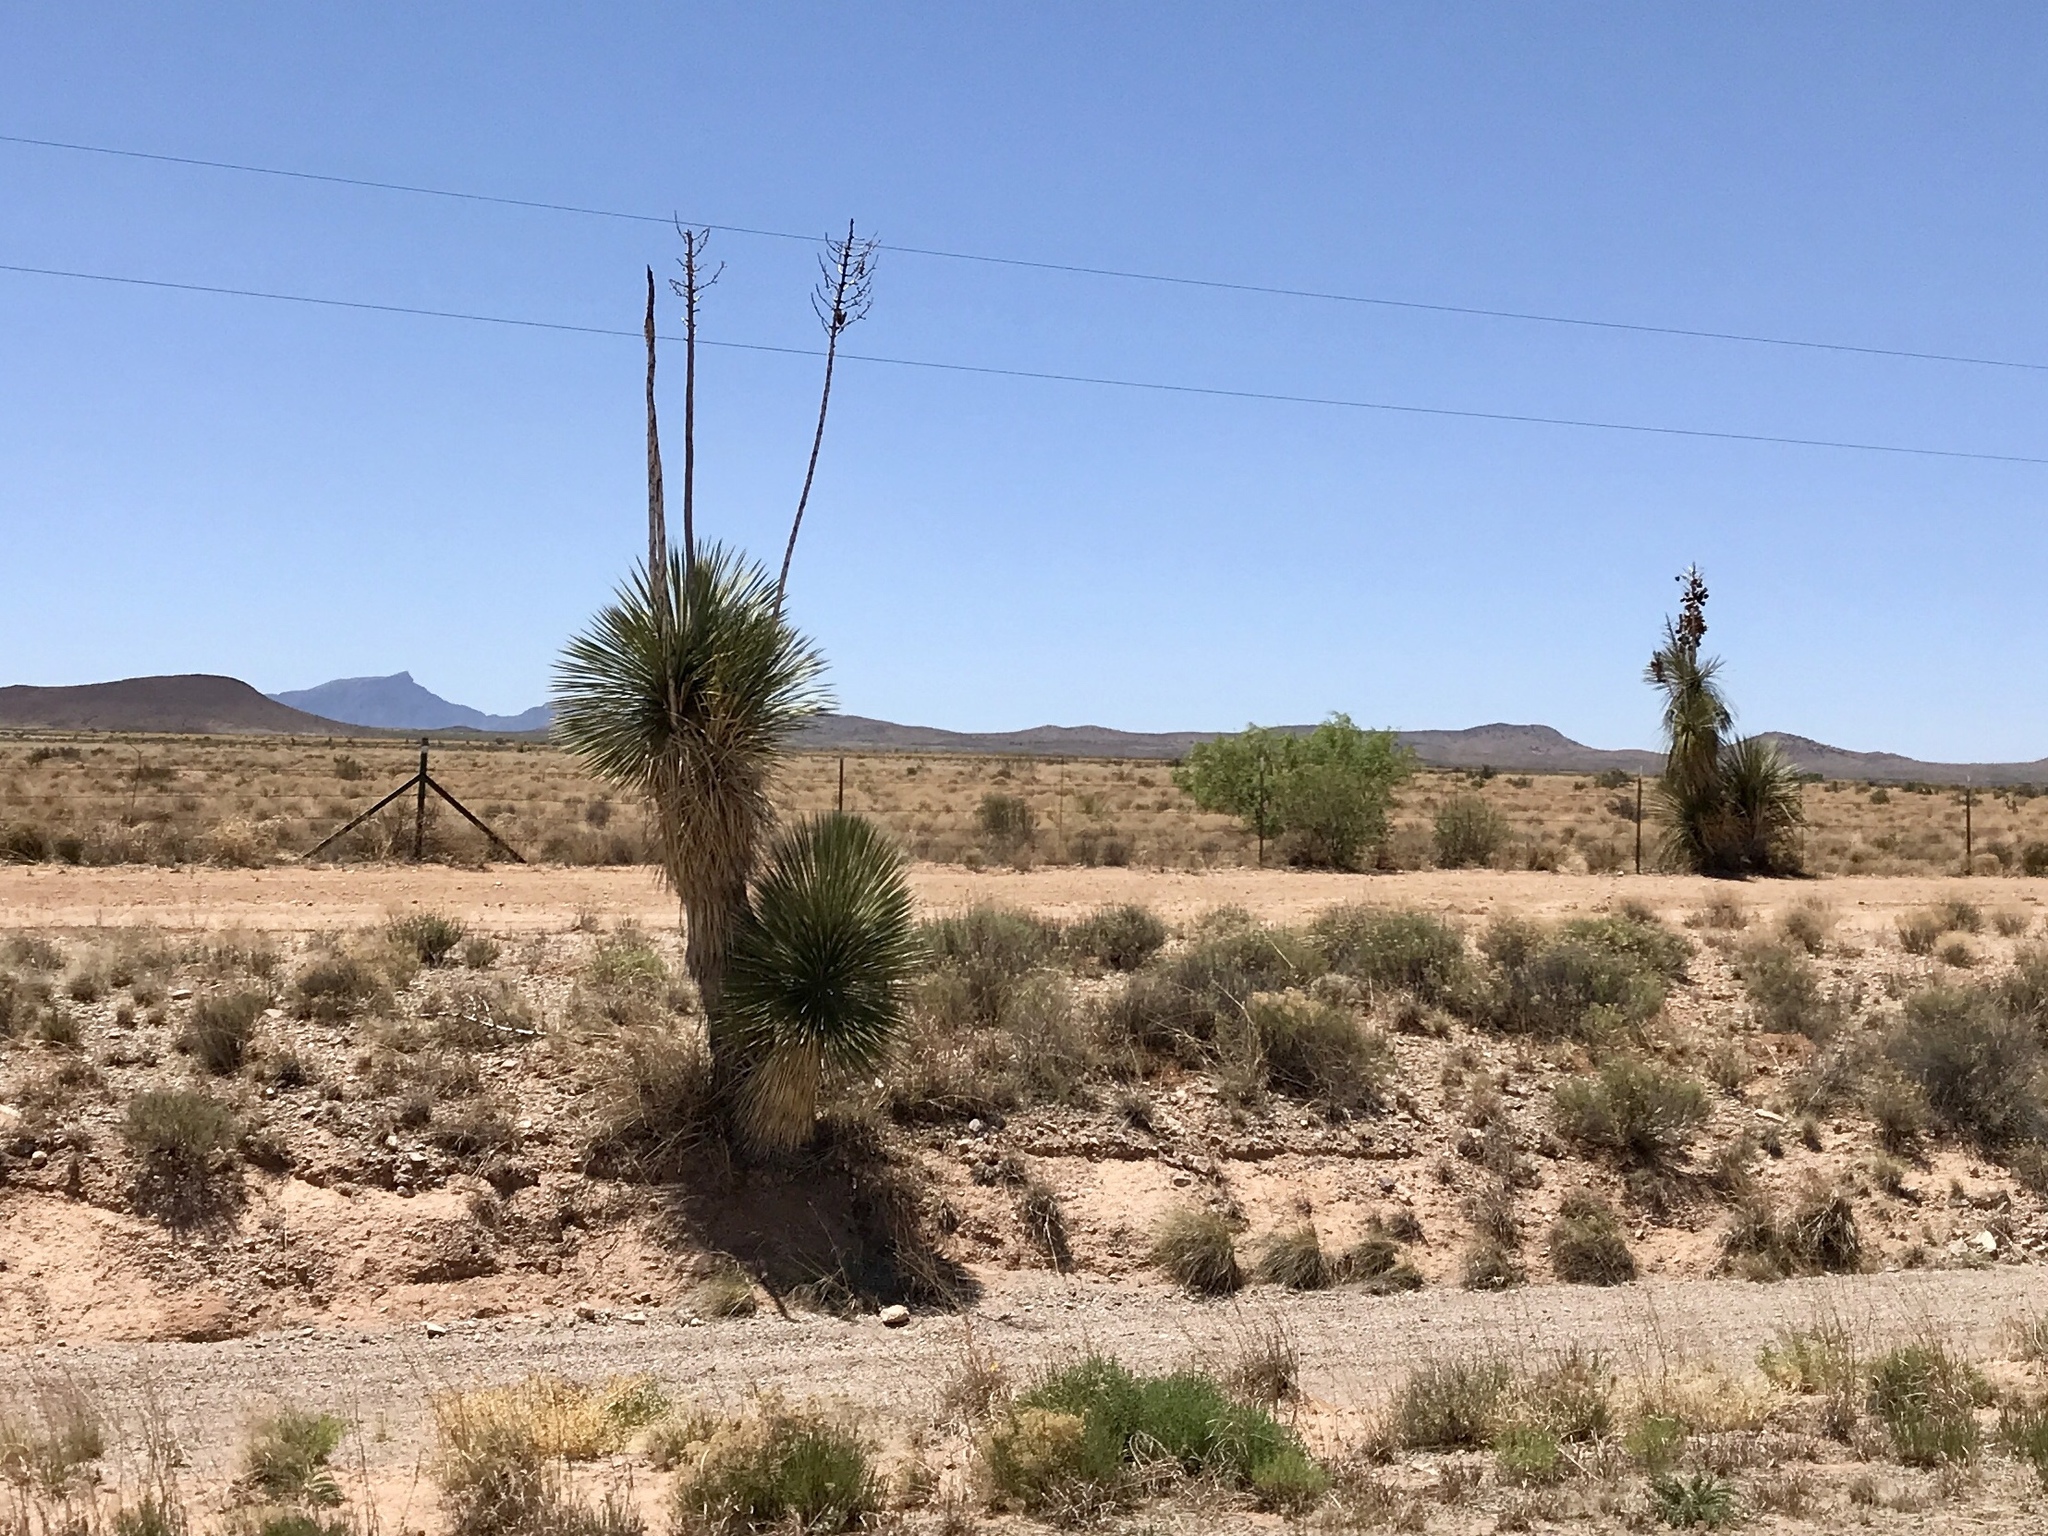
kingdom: Plantae
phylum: Tracheophyta
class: Liliopsida
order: Asparagales
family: Asparagaceae
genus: Yucca
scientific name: Yucca elata
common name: Palmella
